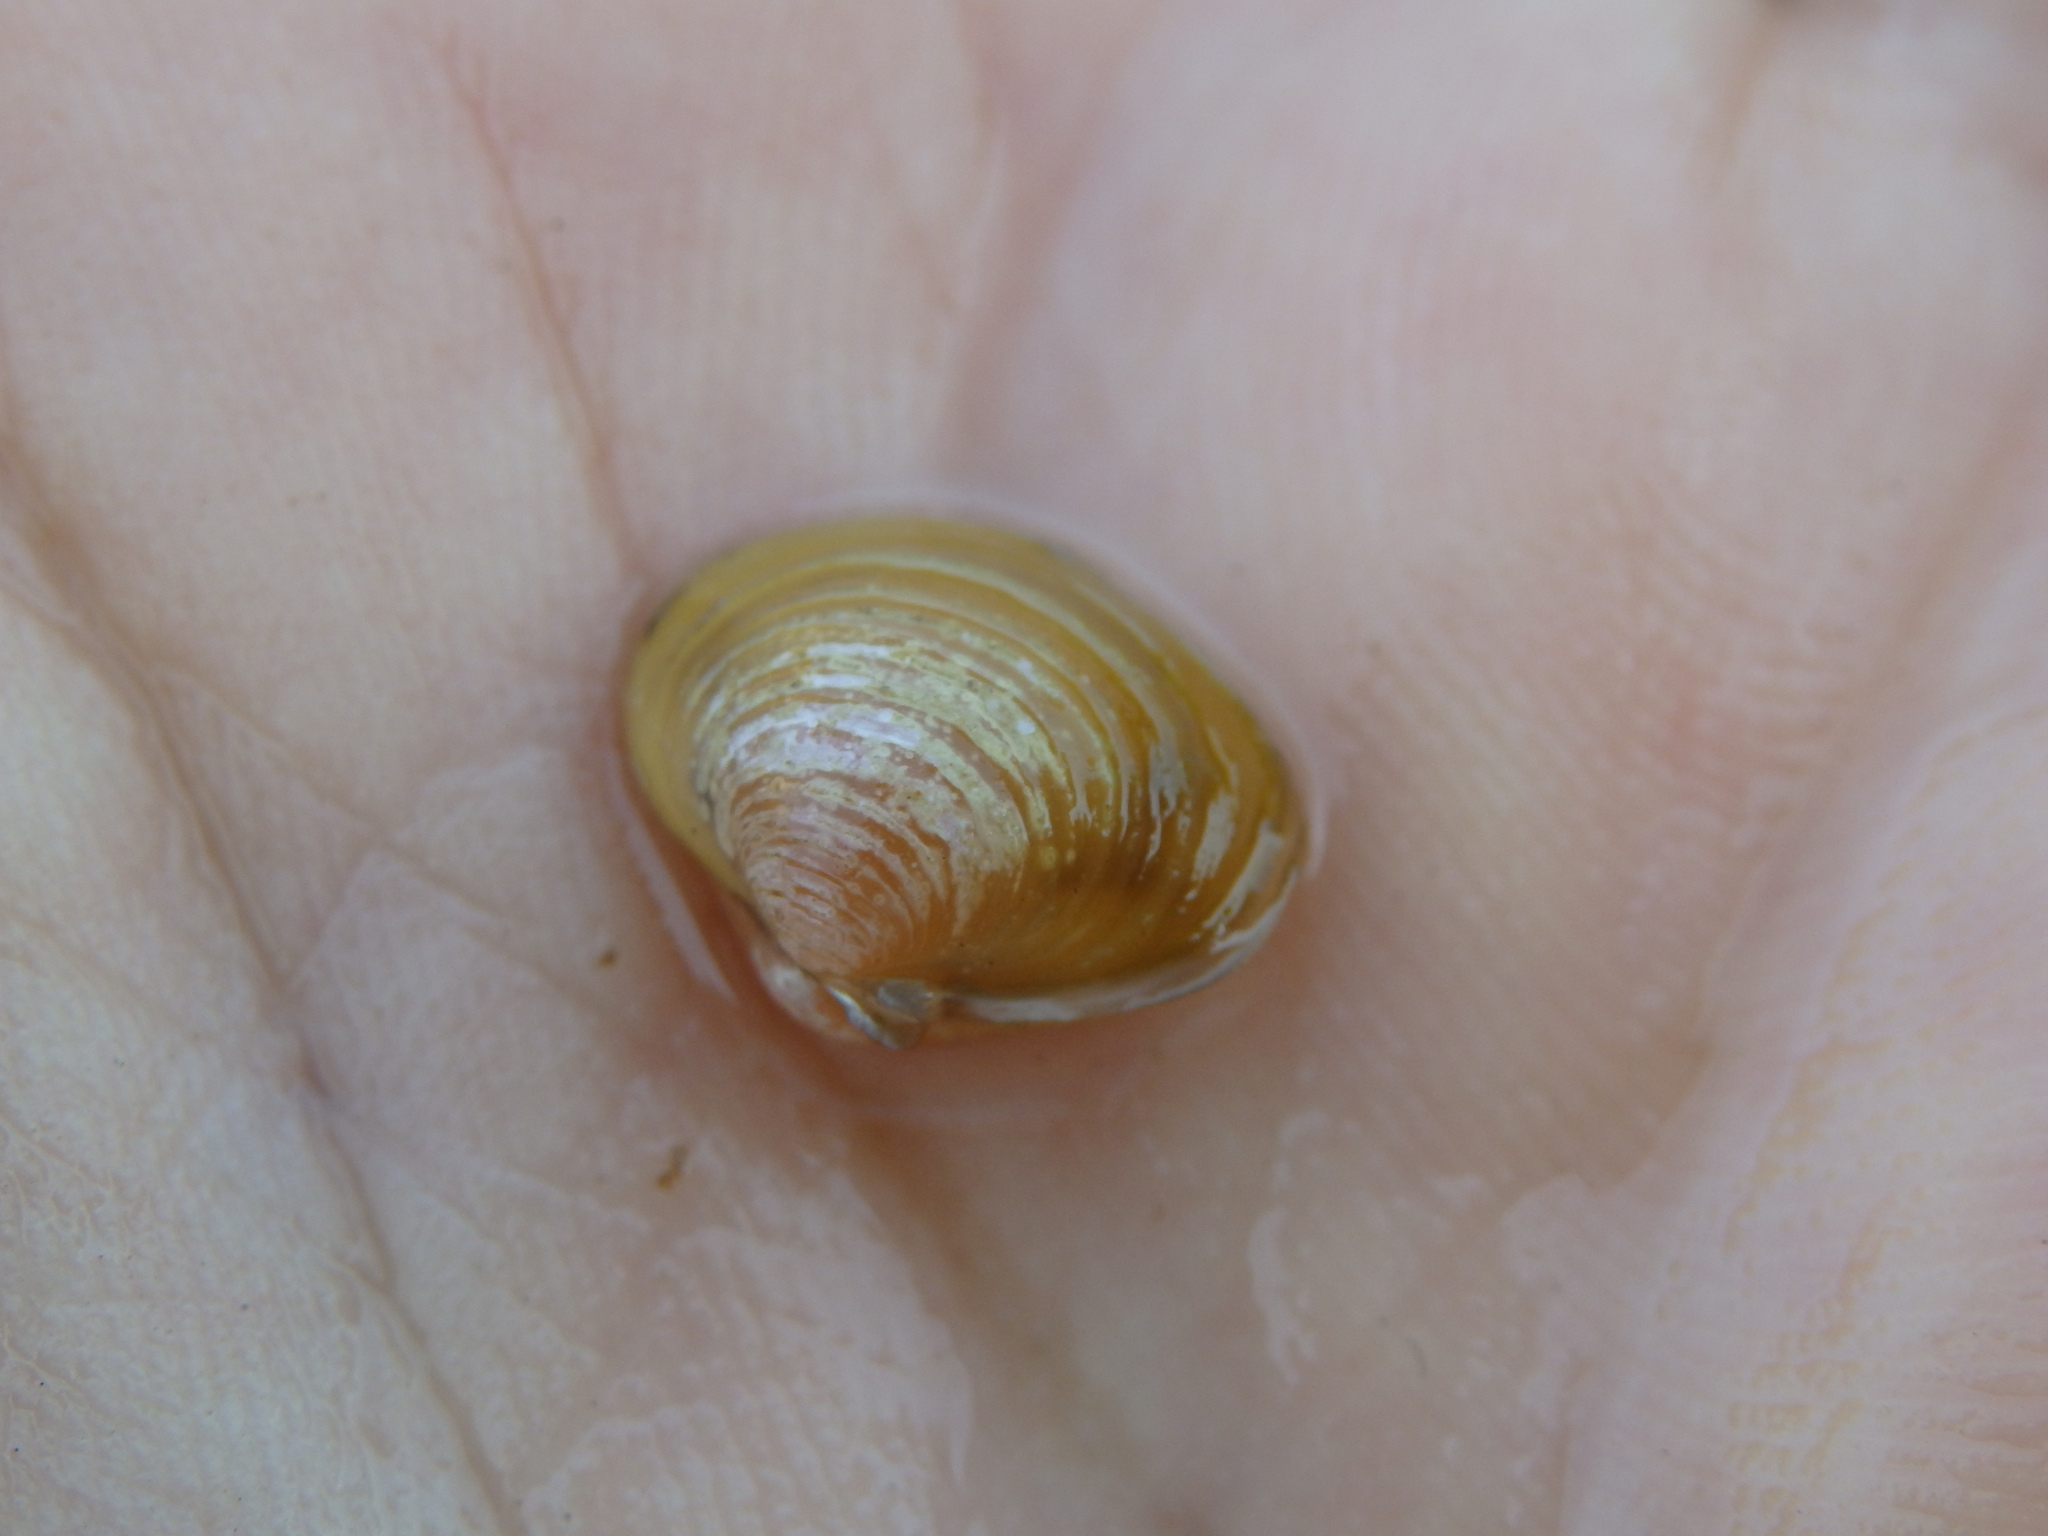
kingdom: Animalia
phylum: Mollusca
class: Bivalvia
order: Venerida
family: Cyrenidae
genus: Corbicula
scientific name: Corbicula fluminea
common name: Asian clam
